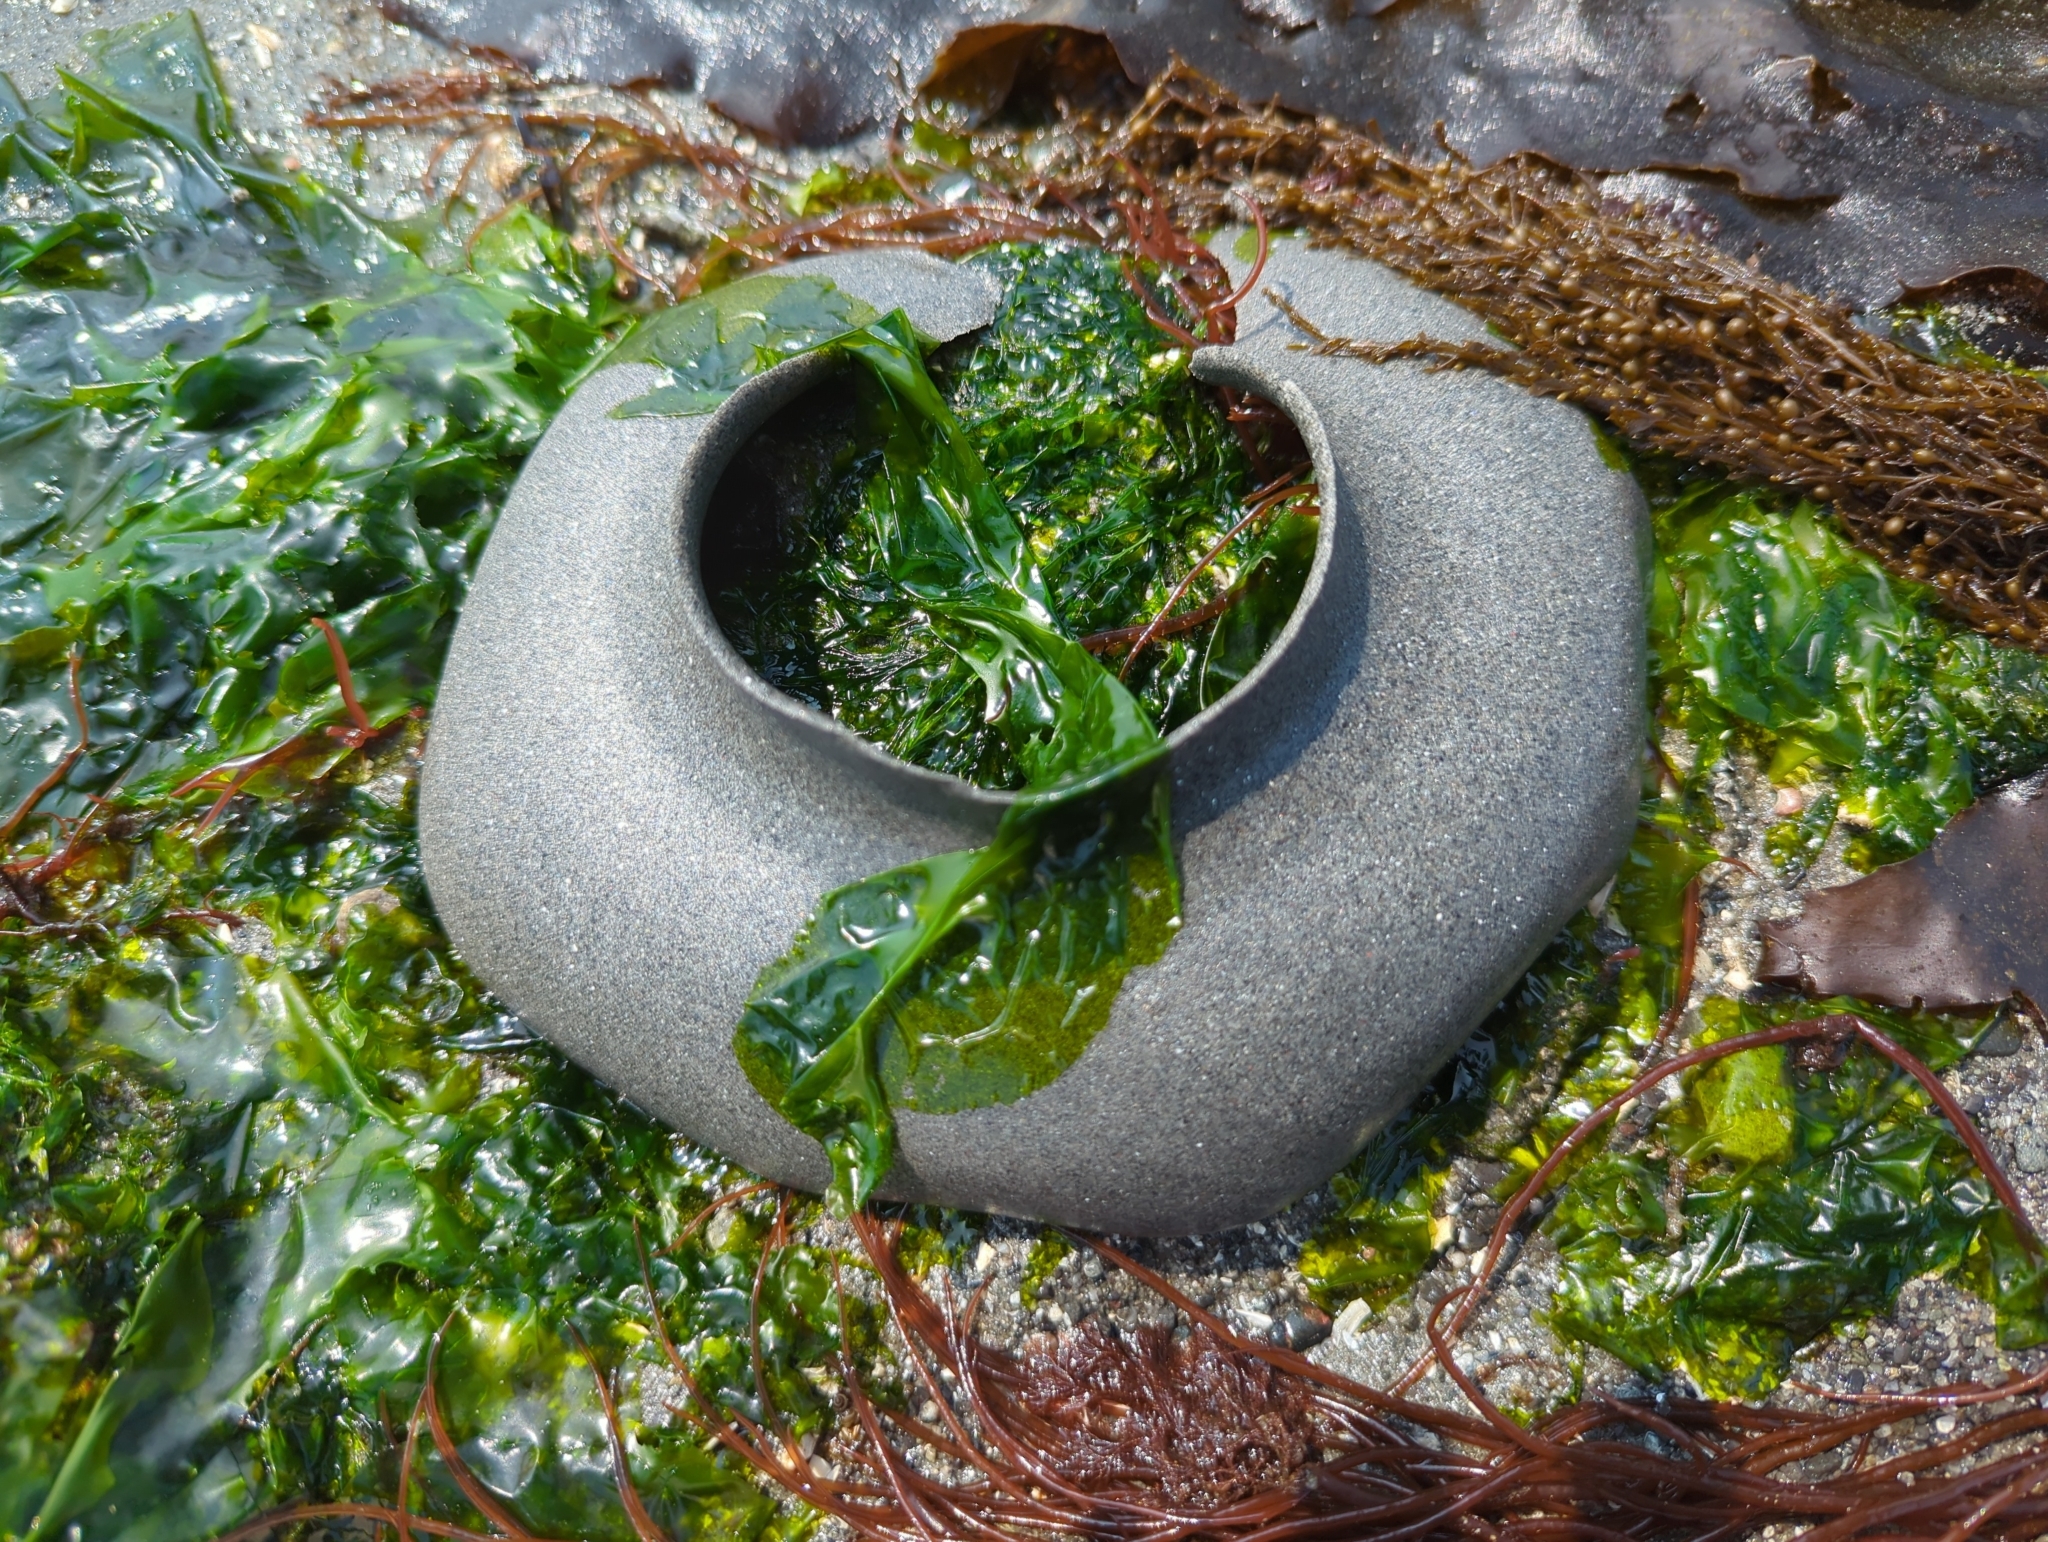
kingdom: Animalia
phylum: Mollusca
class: Gastropoda
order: Littorinimorpha
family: Naticidae
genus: Neverita
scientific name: Neverita lewisii
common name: Lewis' moonsnail
